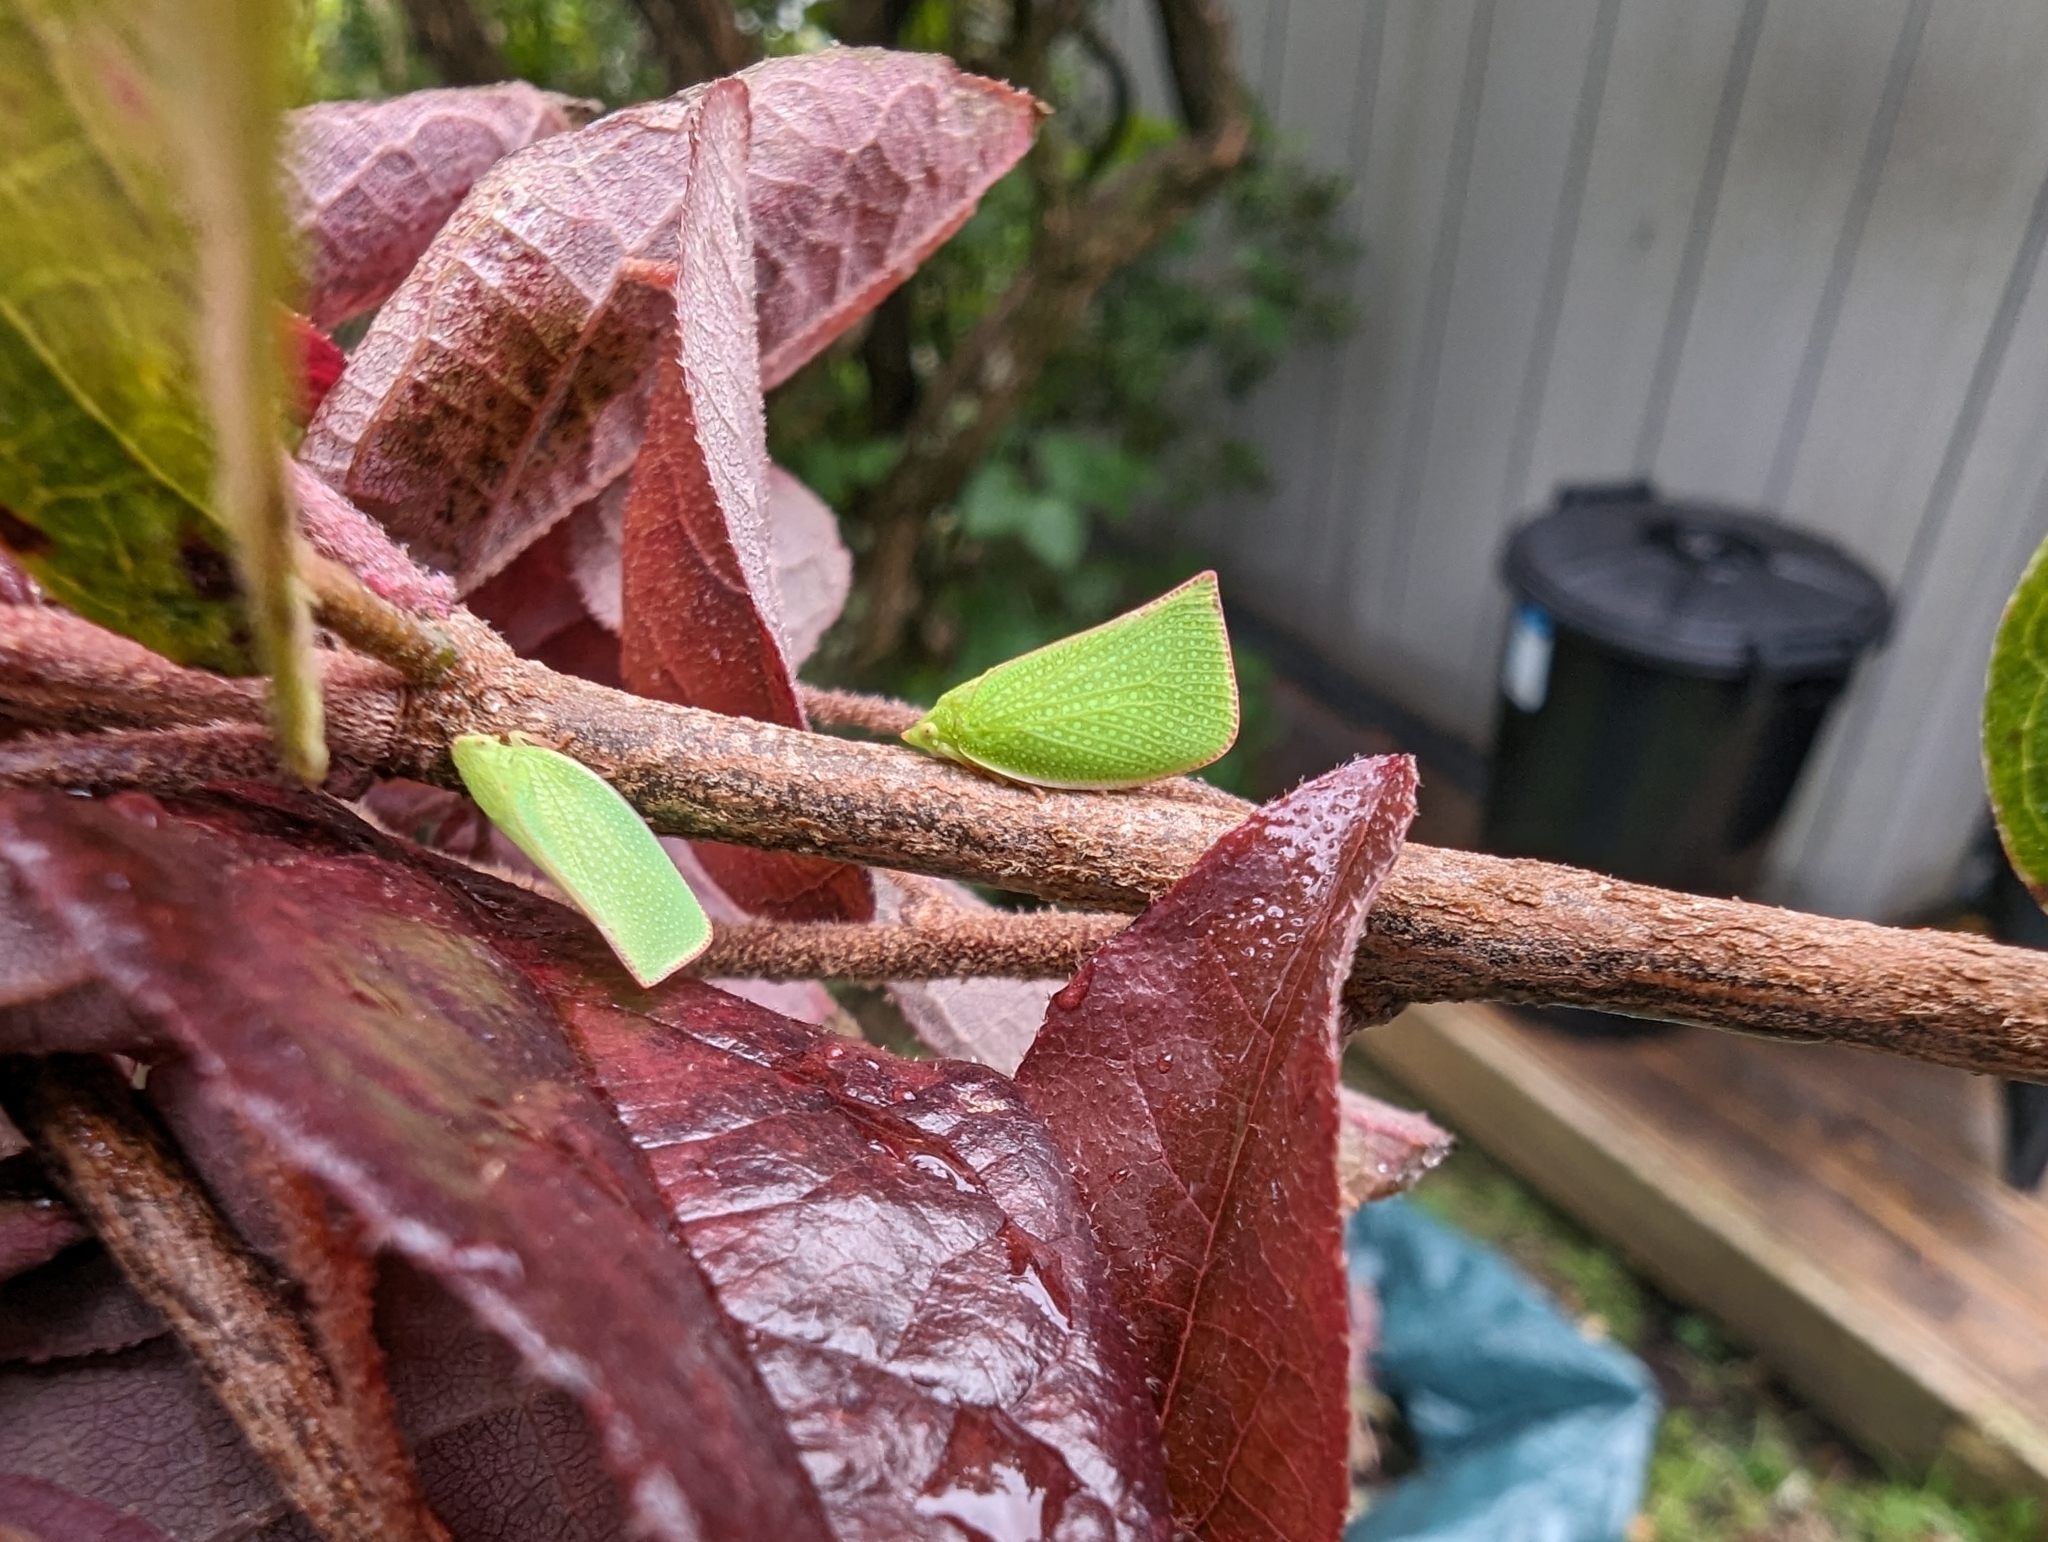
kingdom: Animalia
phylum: Arthropoda
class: Insecta
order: Hemiptera
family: Flatidae
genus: Siphanta
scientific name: Siphanta acuta
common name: Torpedo bug
